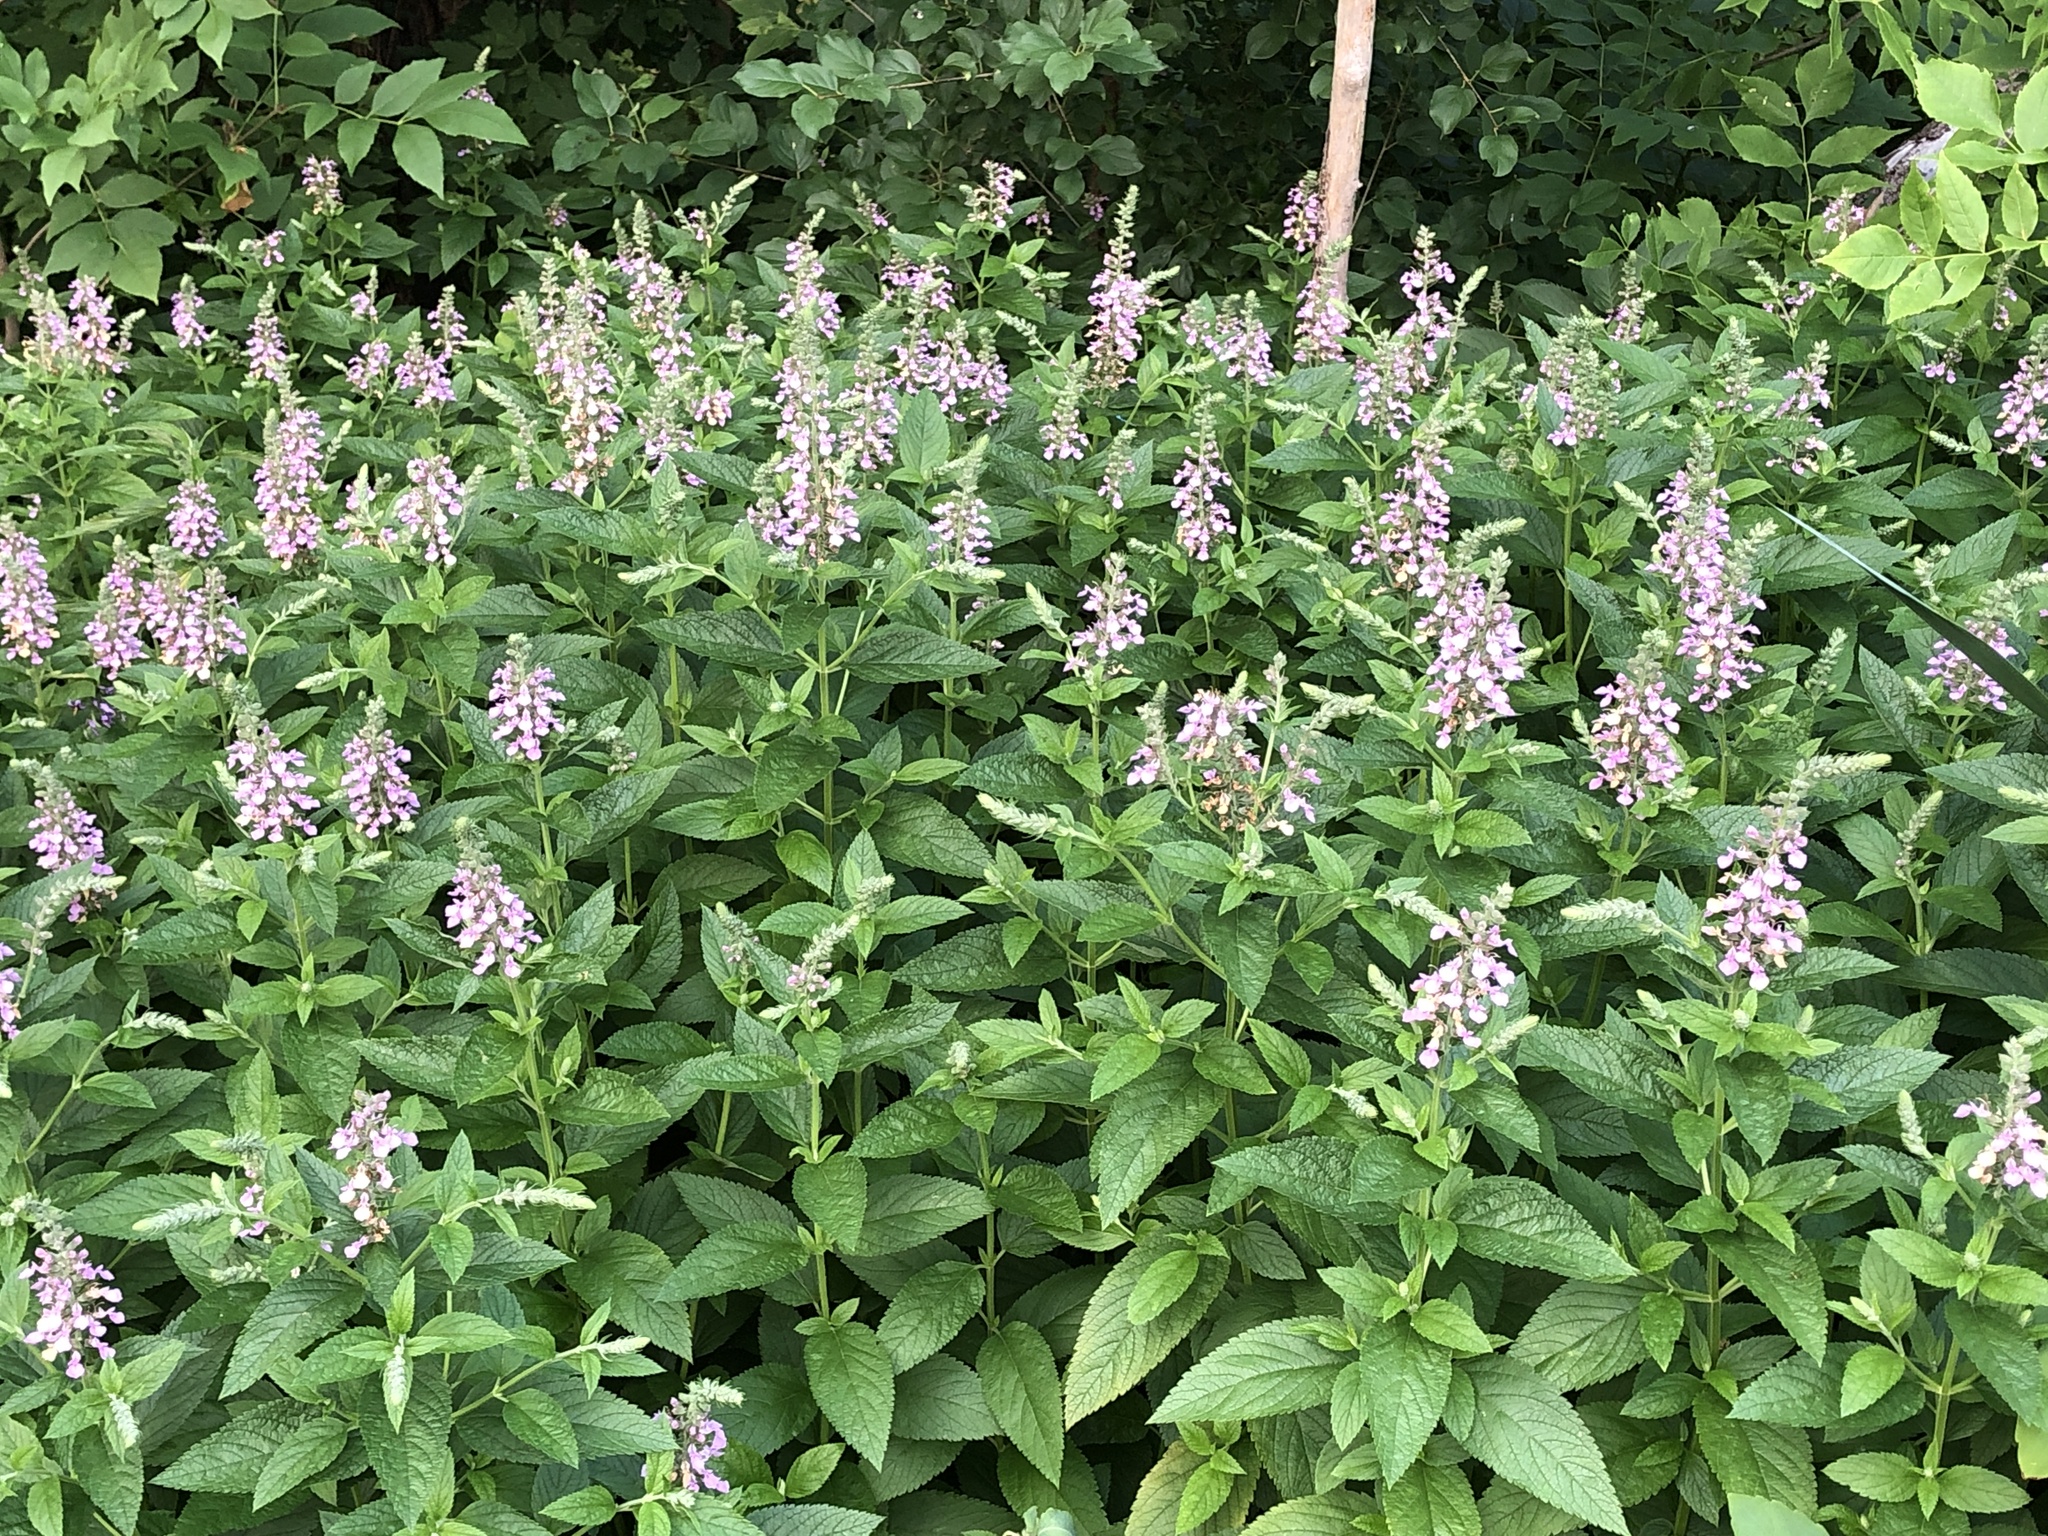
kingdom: Plantae
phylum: Tracheophyta
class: Magnoliopsida
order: Lamiales
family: Lamiaceae
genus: Teucrium
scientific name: Teucrium canadense
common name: American germander
